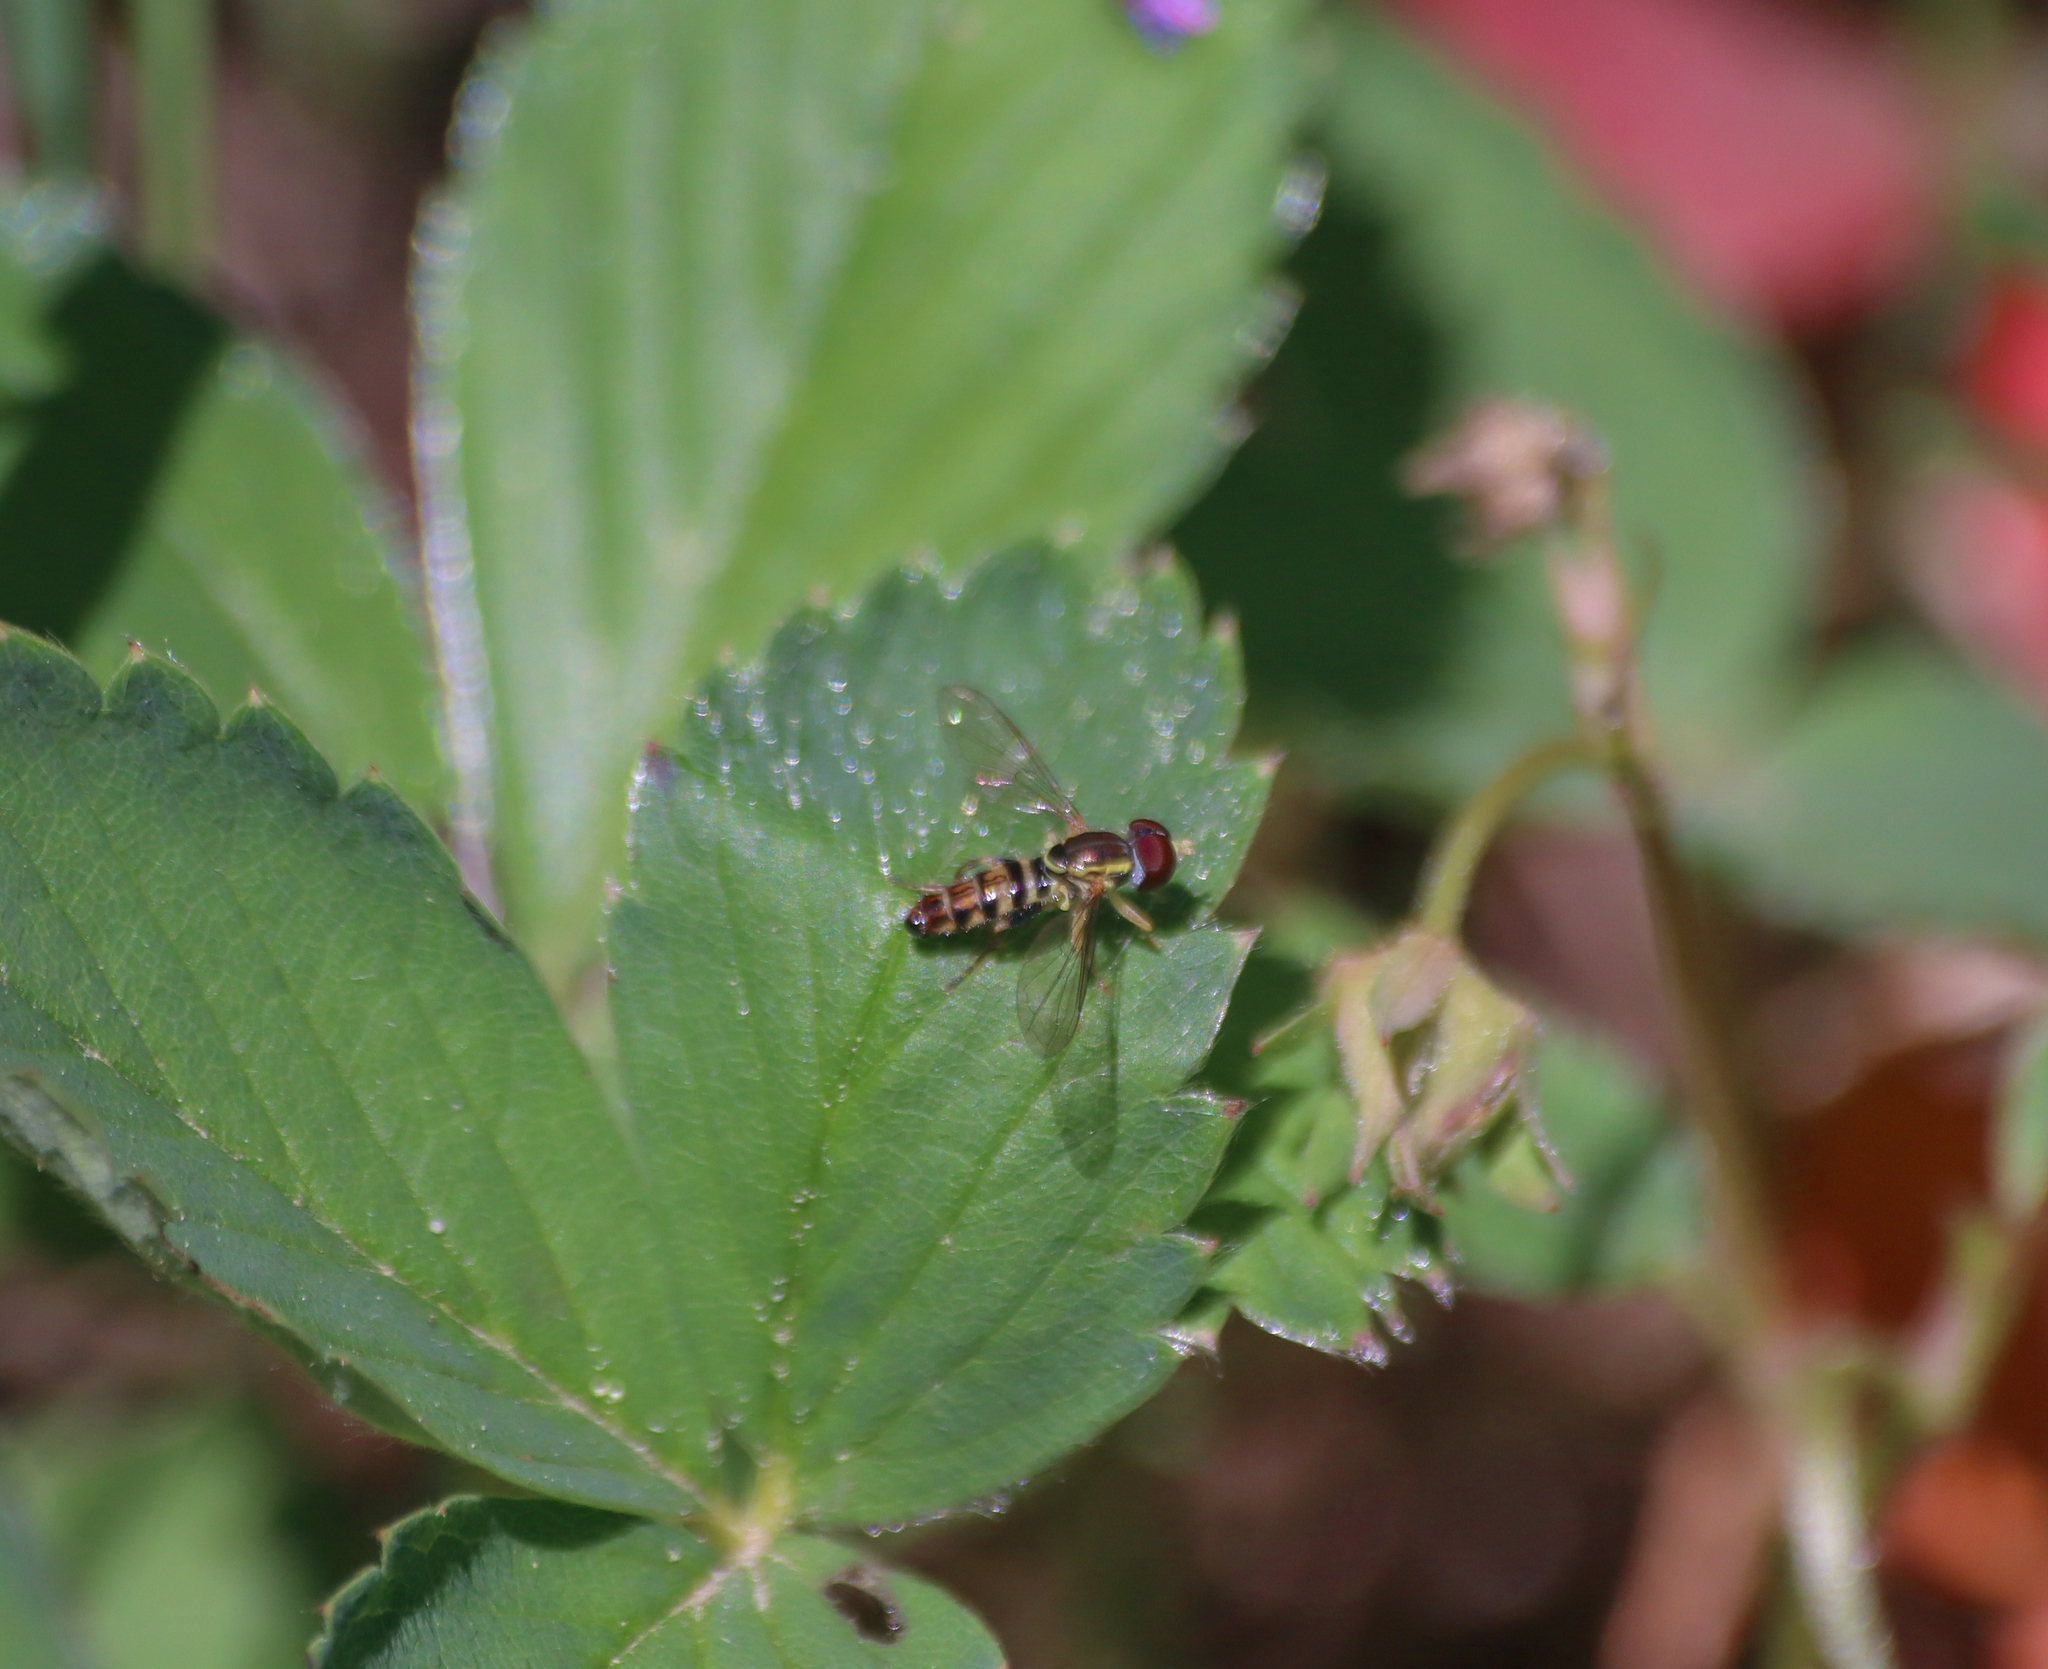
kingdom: Animalia
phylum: Arthropoda
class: Insecta
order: Diptera
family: Syrphidae
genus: Toxomerus
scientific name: Toxomerus geminatus
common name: Eastern calligrapher
